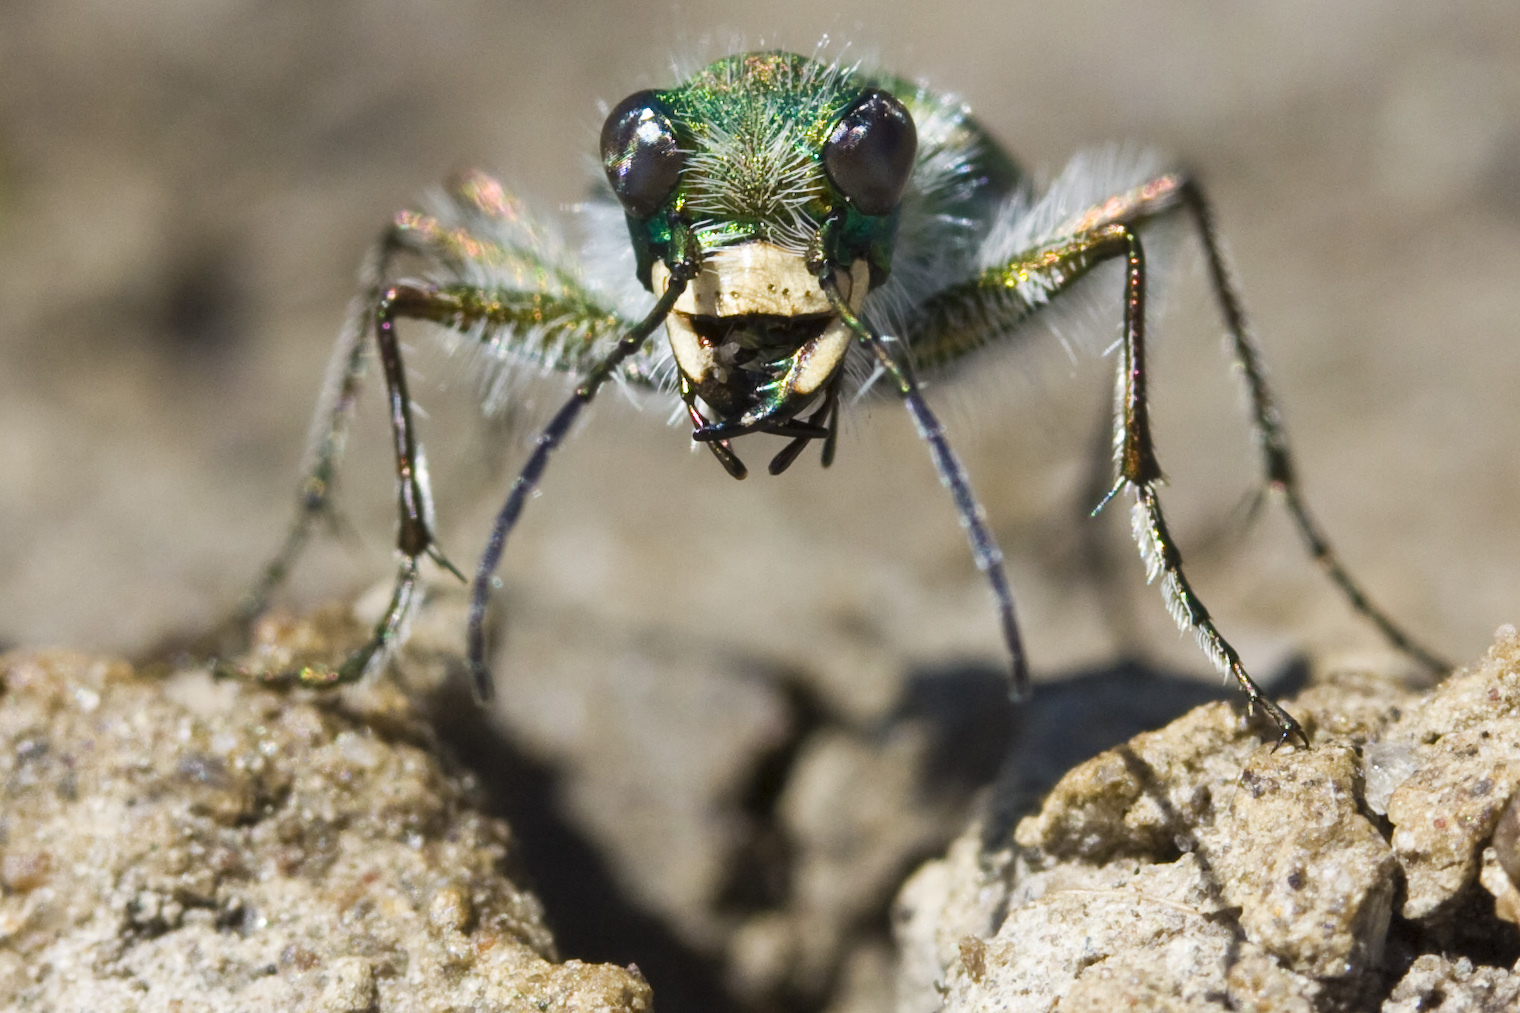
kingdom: Animalia
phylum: Arthropoda
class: Insecta
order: Coleoptera
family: Carabidae
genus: Cicindela
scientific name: Cicindela tranquebarica
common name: Oblique-lined tiger beetle
